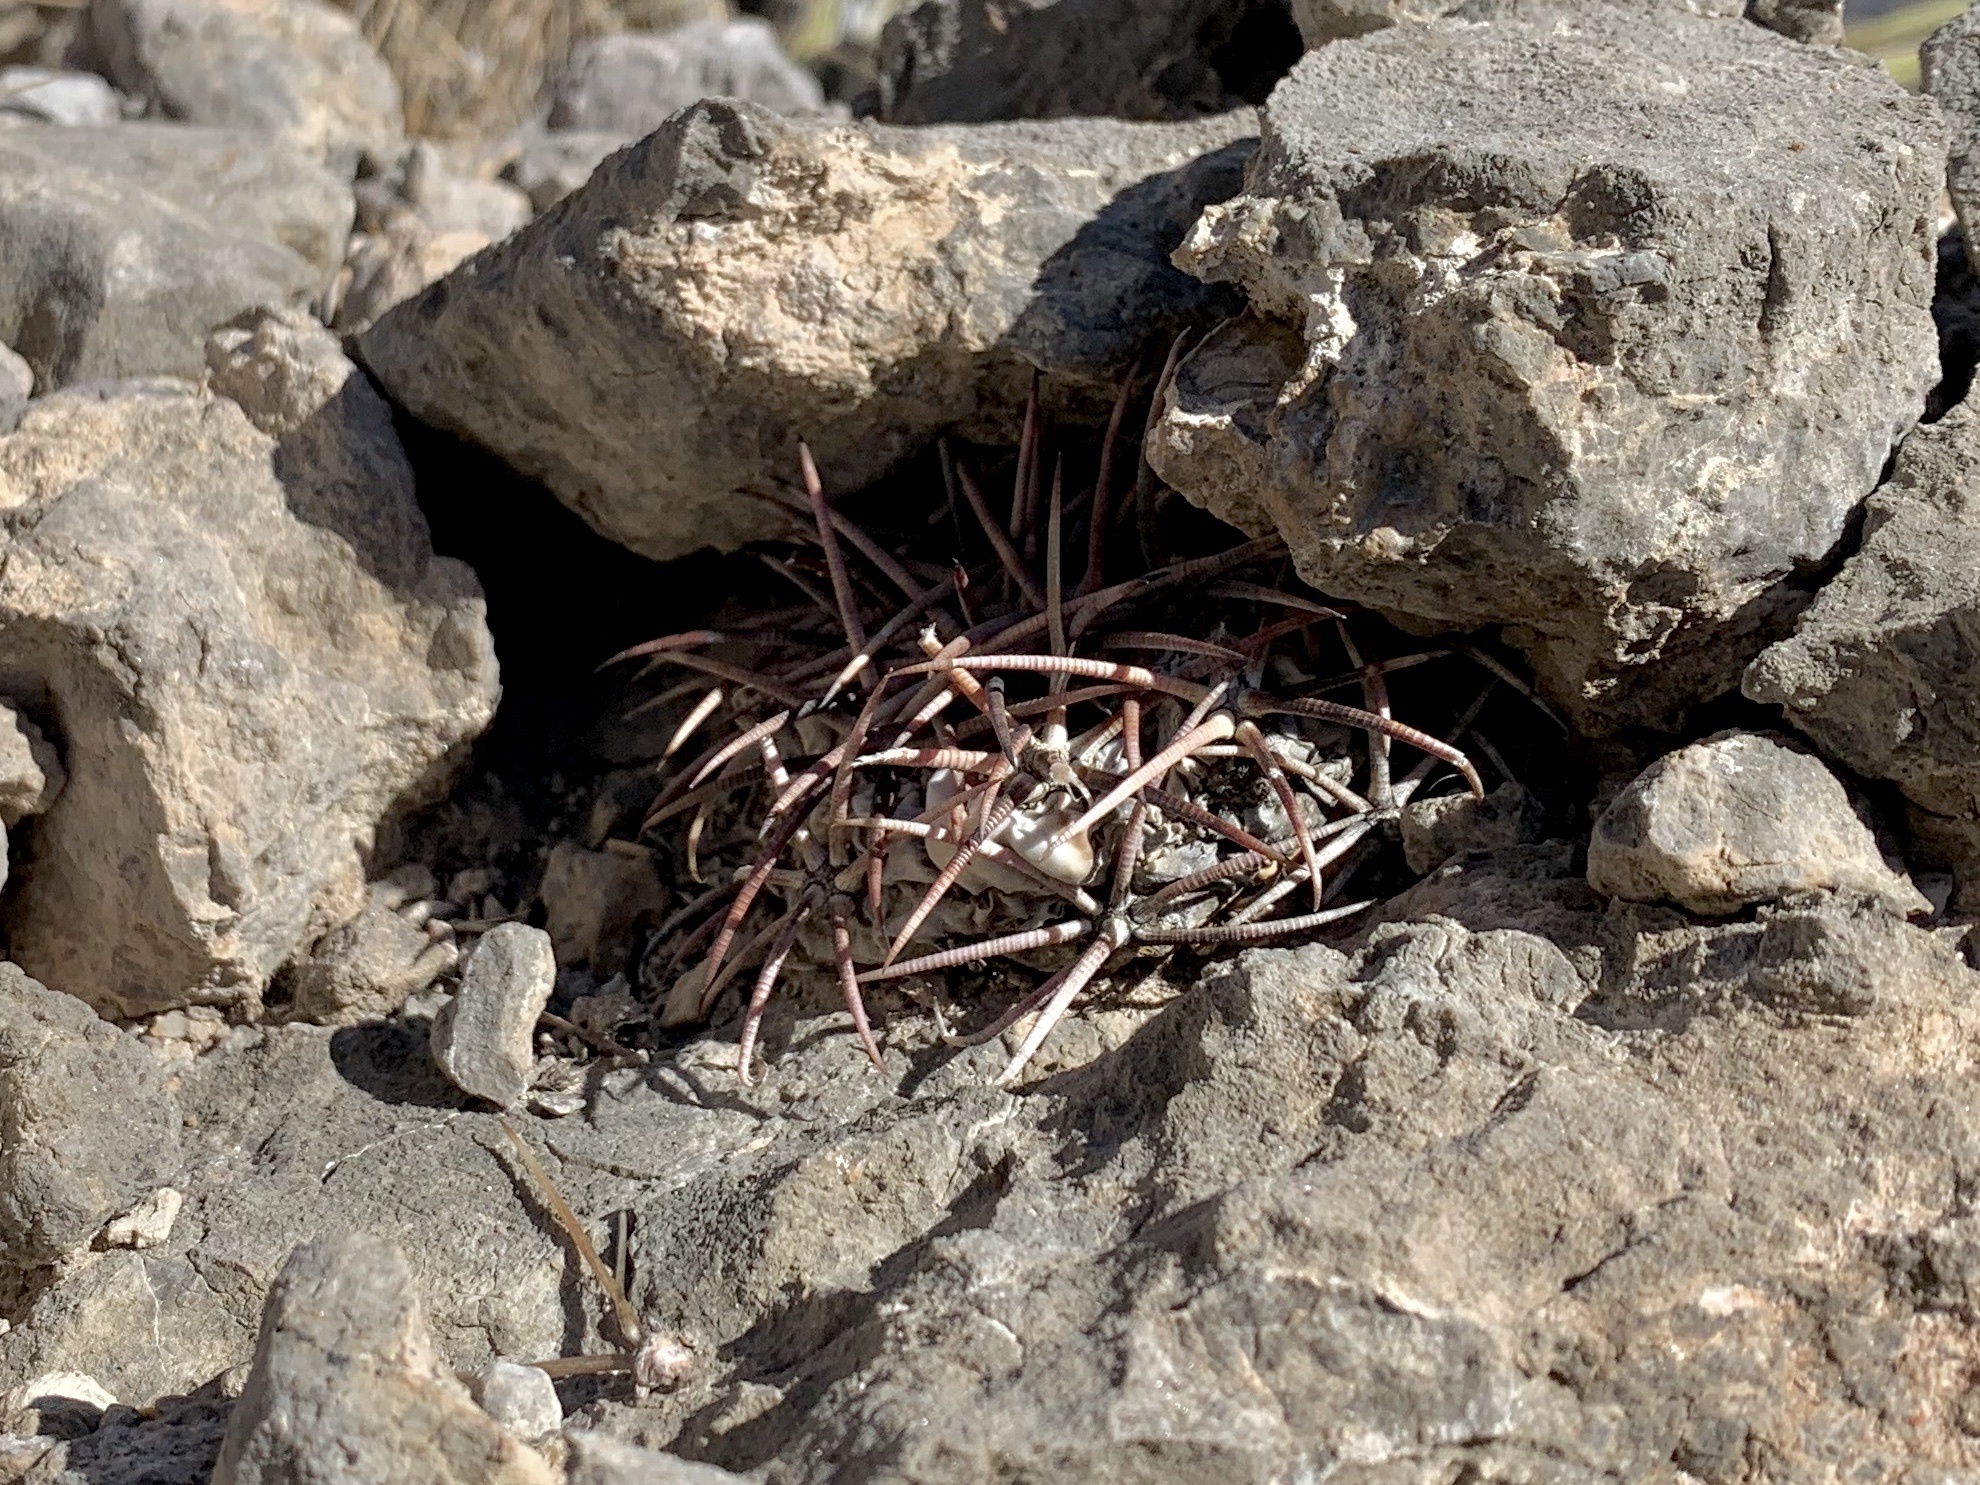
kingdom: Plantae
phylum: Tracheophyta
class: Magnoliopsida
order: Caryophyllales
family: Cactaceae
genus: Echinocactus
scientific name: Echinocactus horizonthalonius
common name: Devilshead
